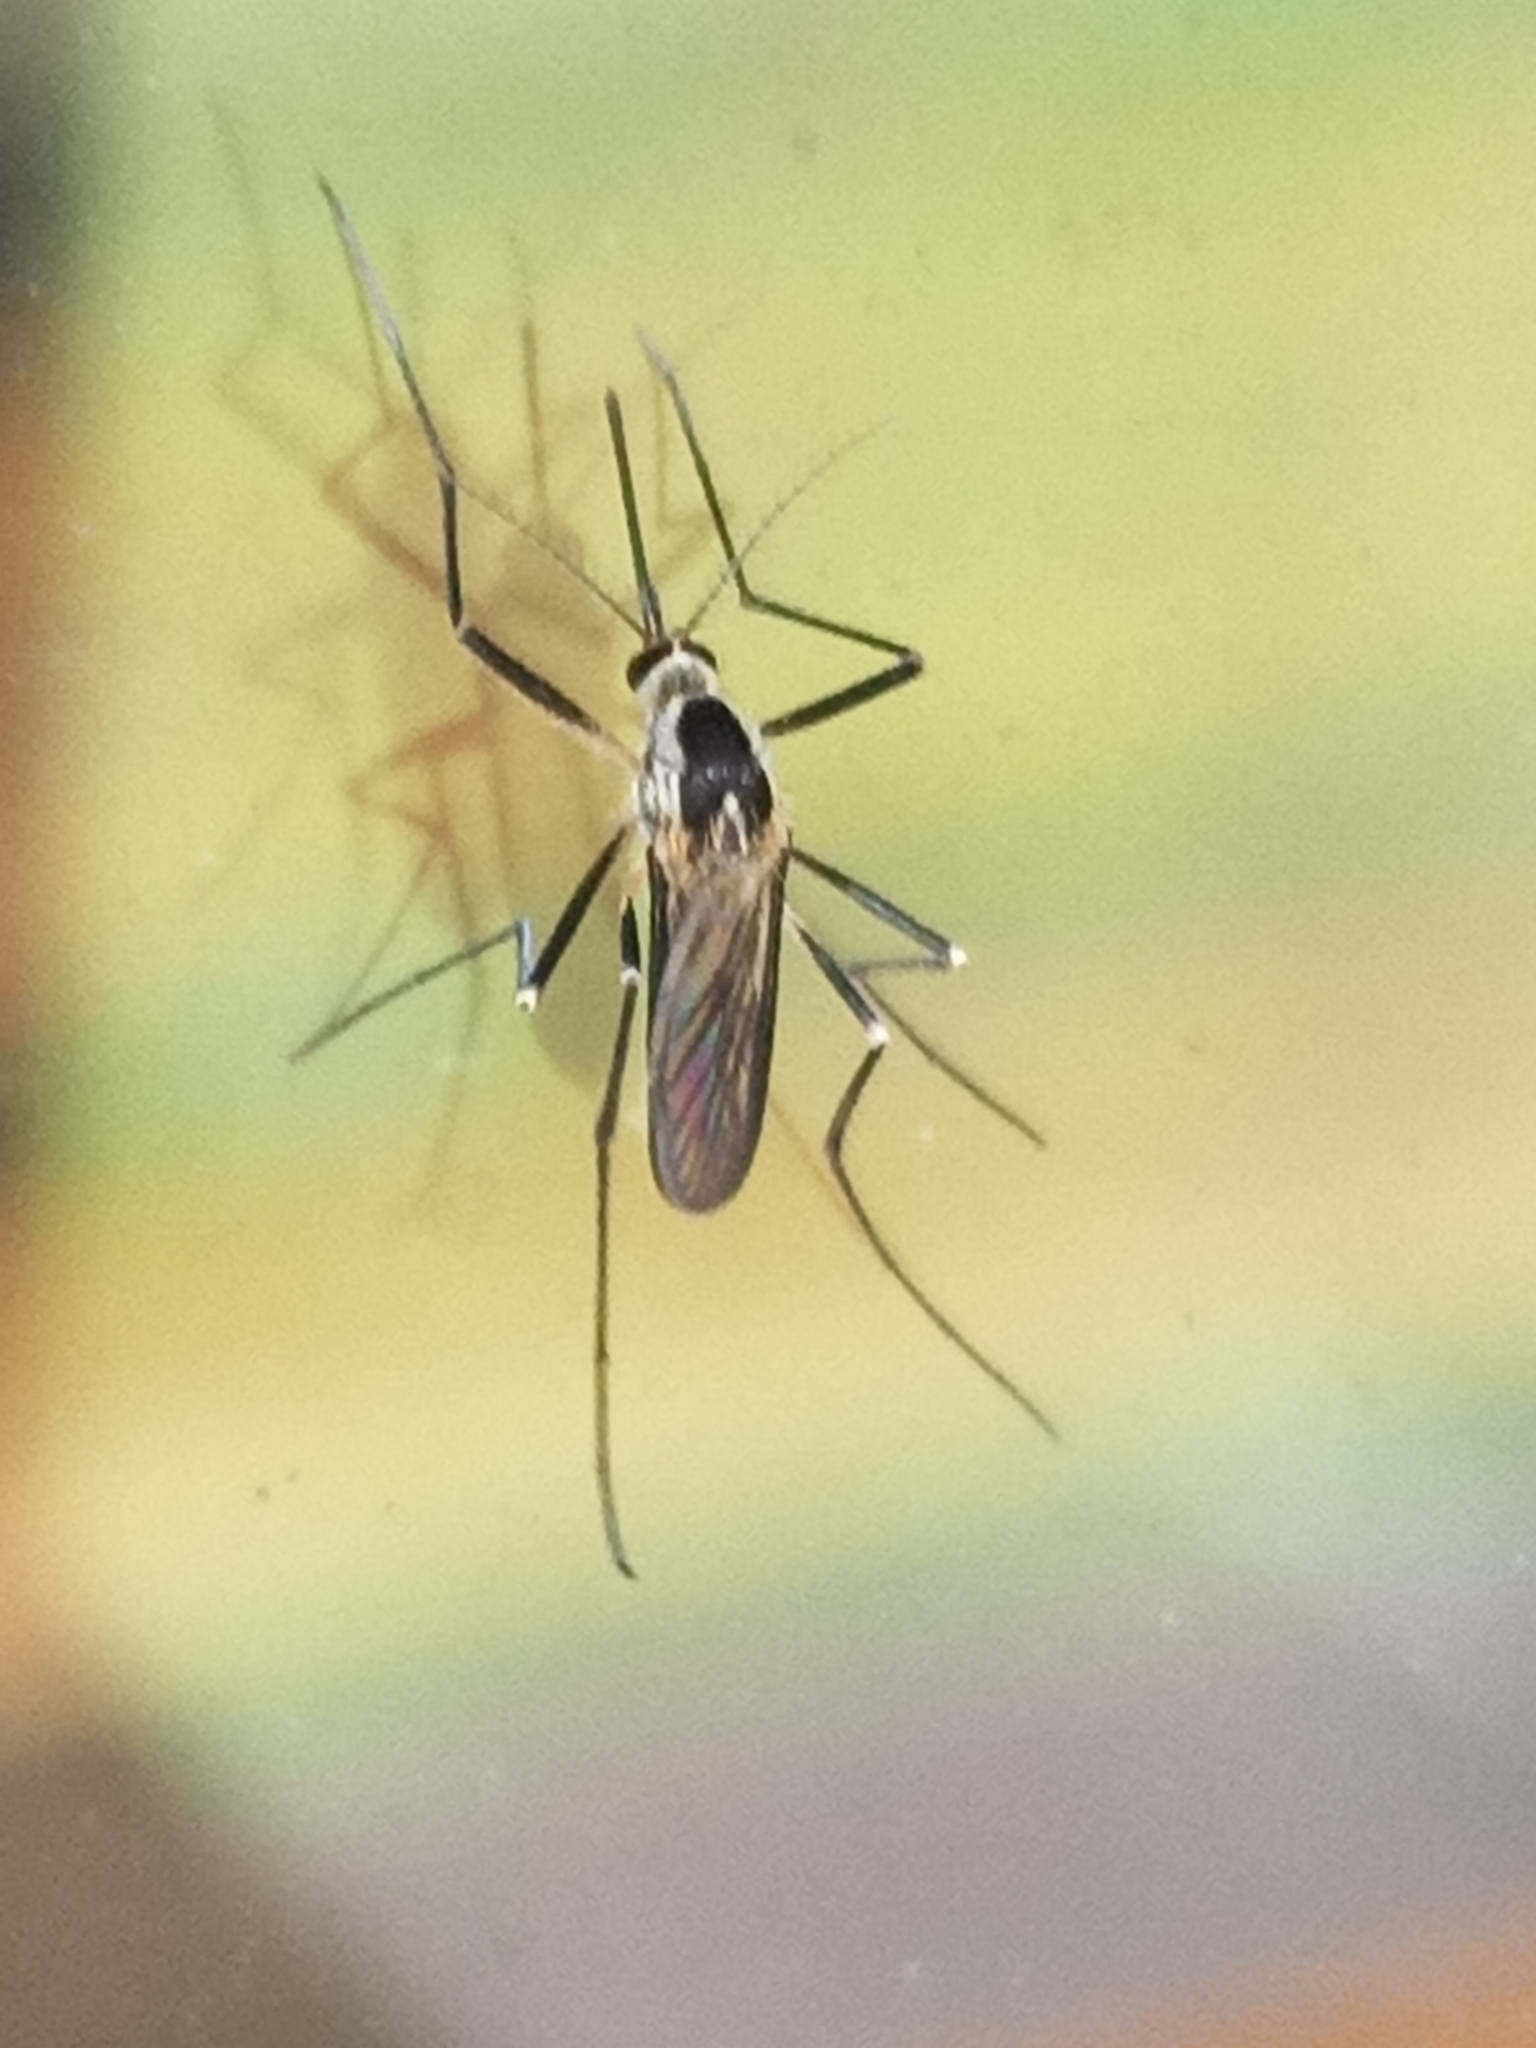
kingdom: Animalia
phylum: Arthropoda
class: Insecta
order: Diptera
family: Culicidae
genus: Aedes
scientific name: Aedes triseriatus
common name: Eastern treehole mosquito
